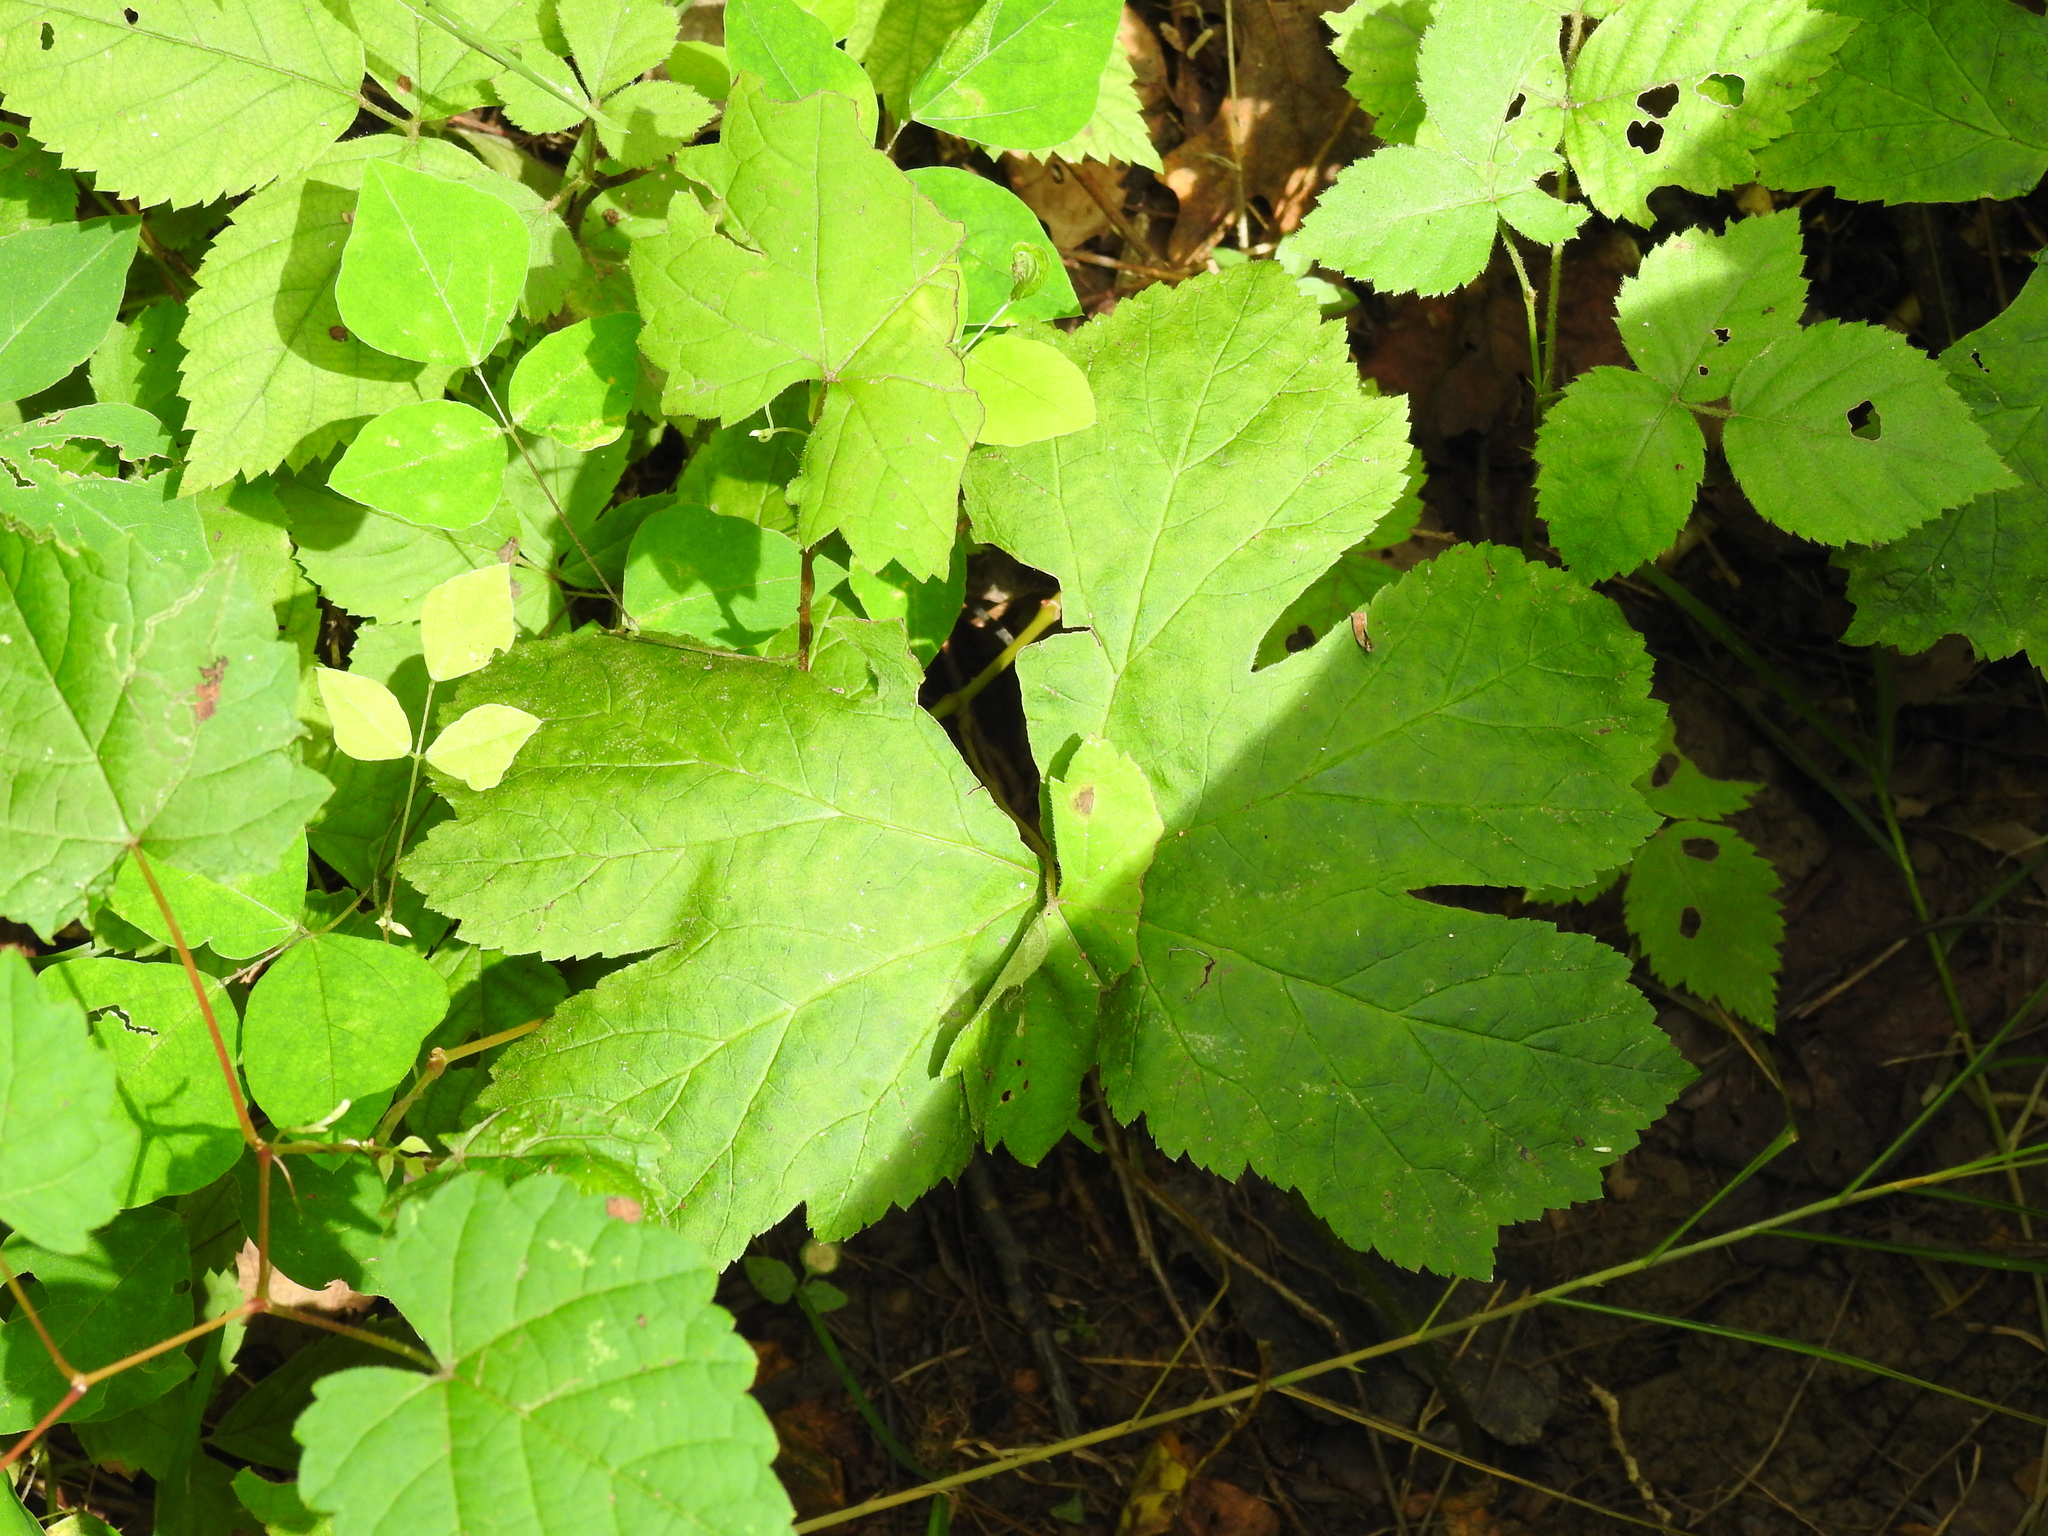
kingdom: Plantae
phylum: Tracheophyta
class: Magnoliopsida
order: Ranunculales
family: Ranunculaceae
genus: Hydrastis
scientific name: Hydrastis canadensis
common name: Goldenseal
